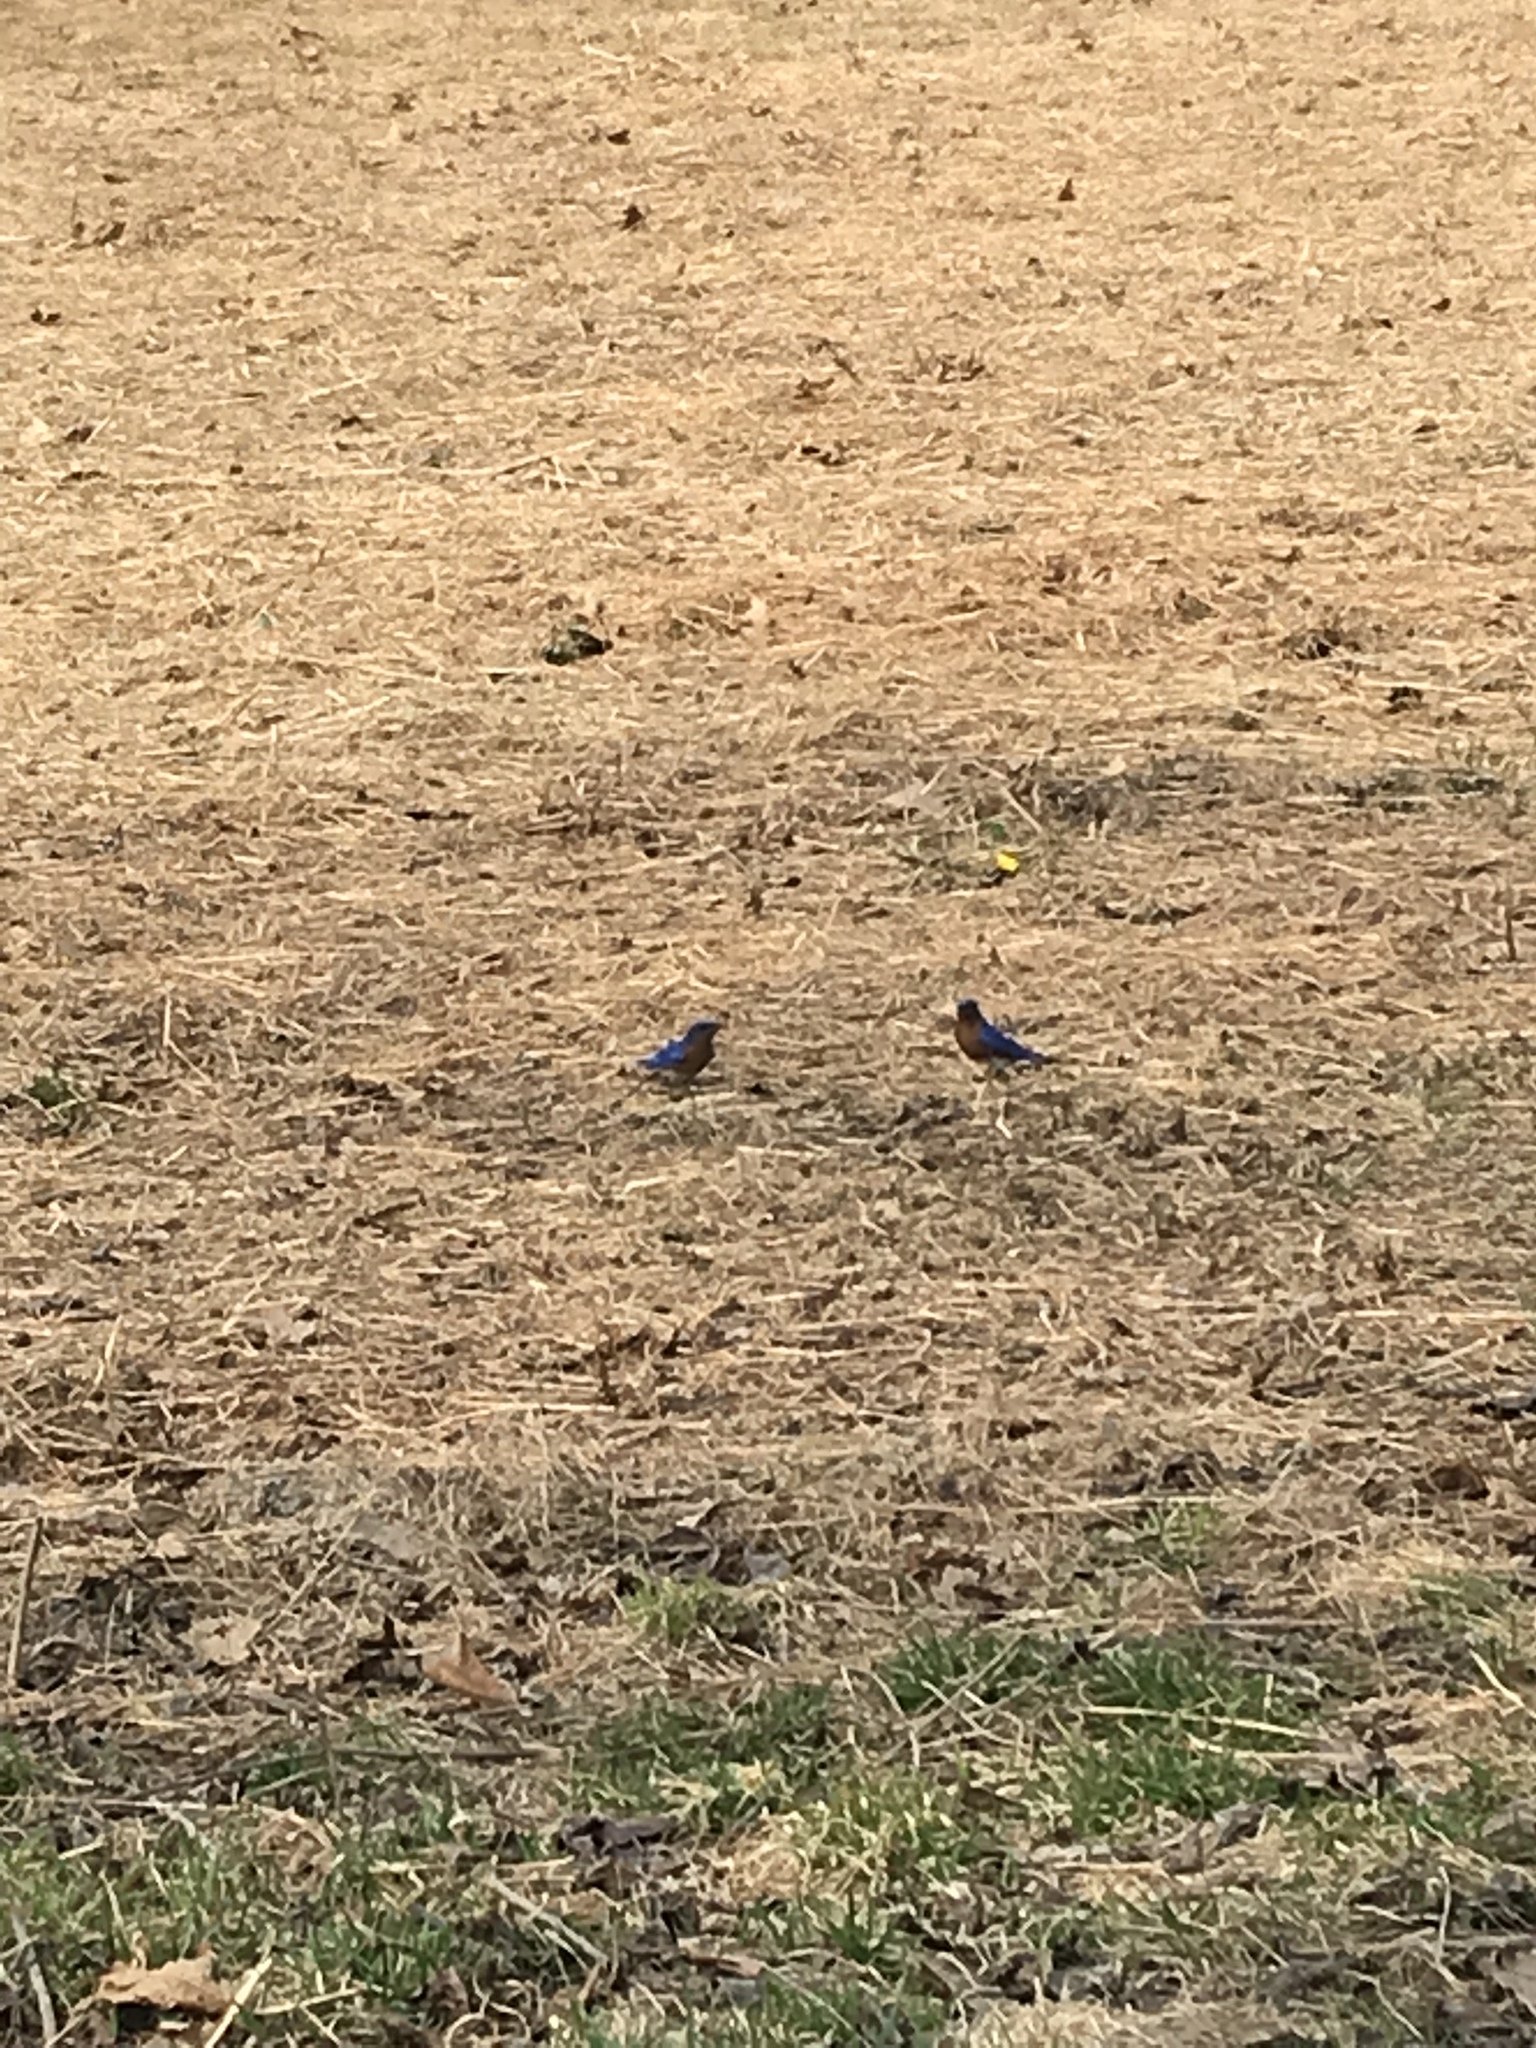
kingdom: Animalia
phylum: Chordata
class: Aves
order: Passeriformes
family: Turdidae
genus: Sialia
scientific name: Sialia sialis
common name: Eastern bluebird
